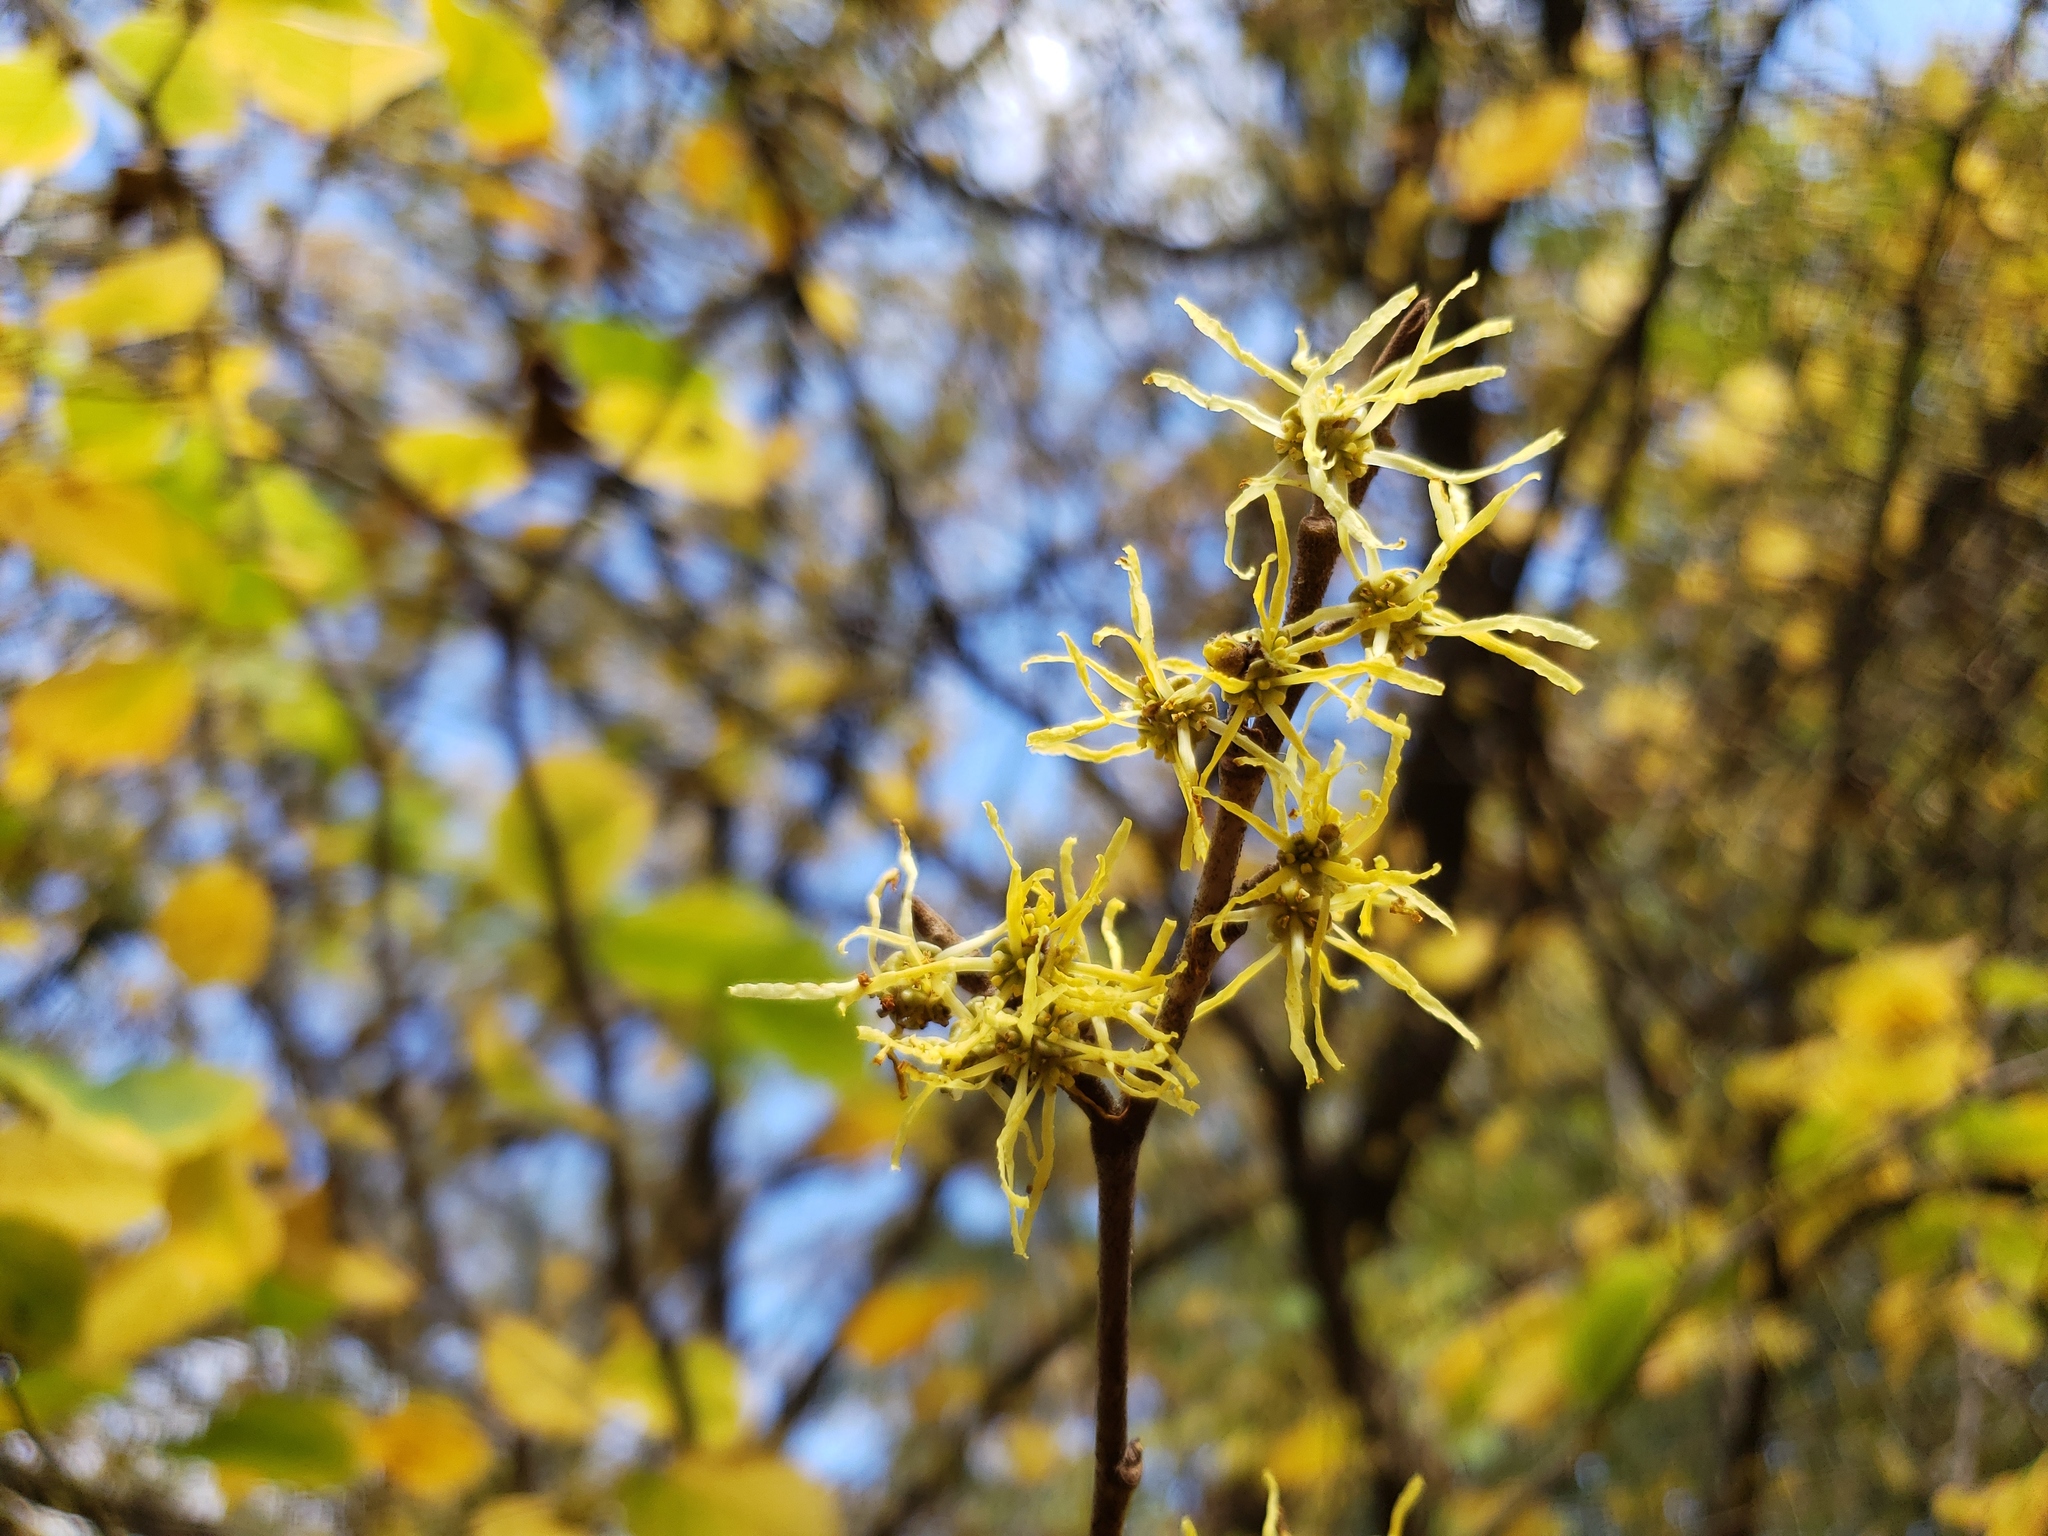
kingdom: Plantae
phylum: Tracheophyta
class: Magnoliopsida
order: Saxifragales
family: Hamamelidaceae
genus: Hamamelis
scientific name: Hamamelis virginiana
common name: Witch-hazel
